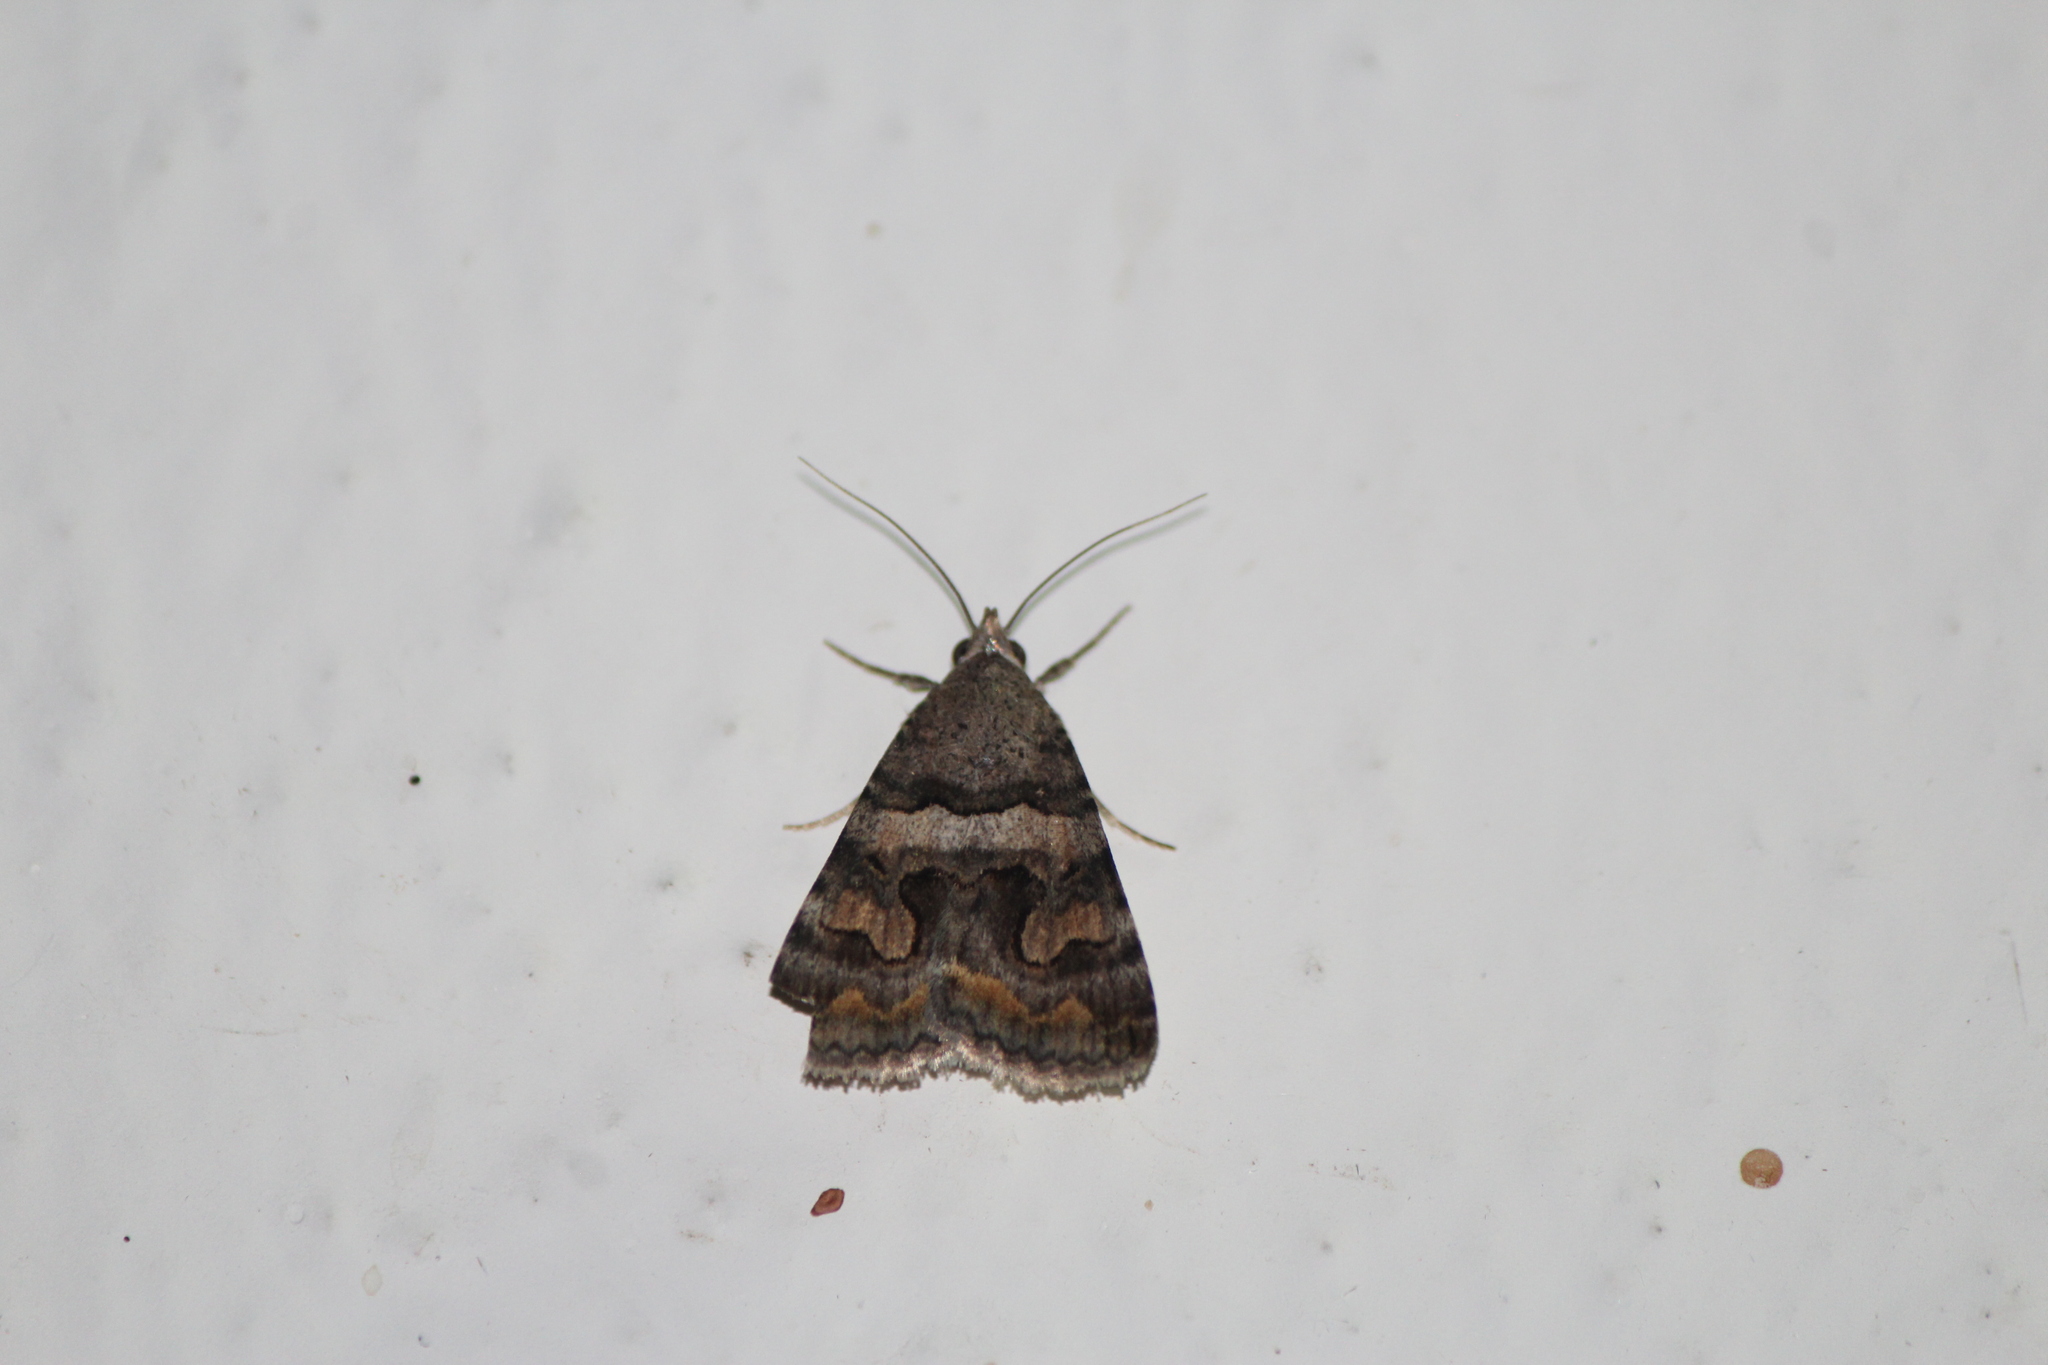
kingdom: Animalia
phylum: Arthropoda
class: Insecta
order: Lepidoptera
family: Erebidae
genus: Bulia
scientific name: Bulia deducta
